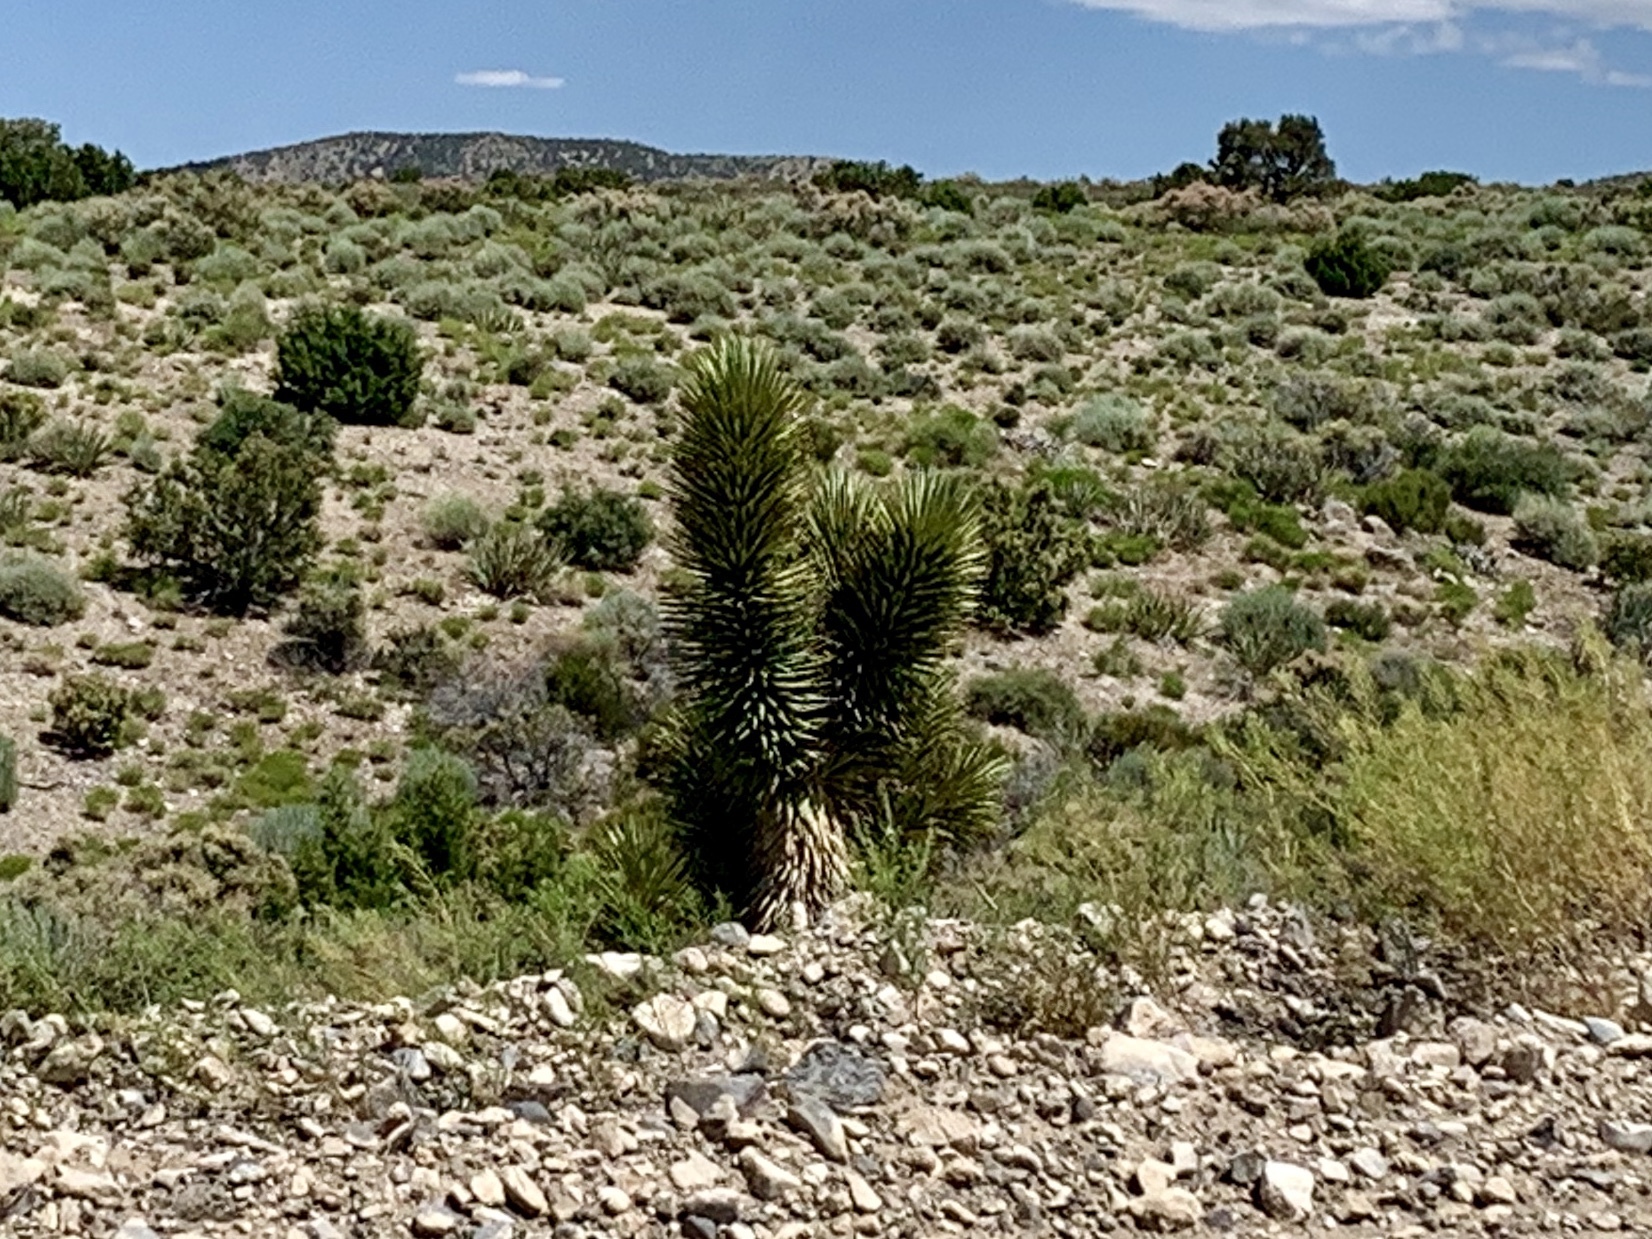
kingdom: Plantae
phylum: Tracheophyta
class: Liliopsida
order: Asparagales
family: Asparagaceae
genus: Yucca
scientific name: Yucca brevifolia
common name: Joshua tree
